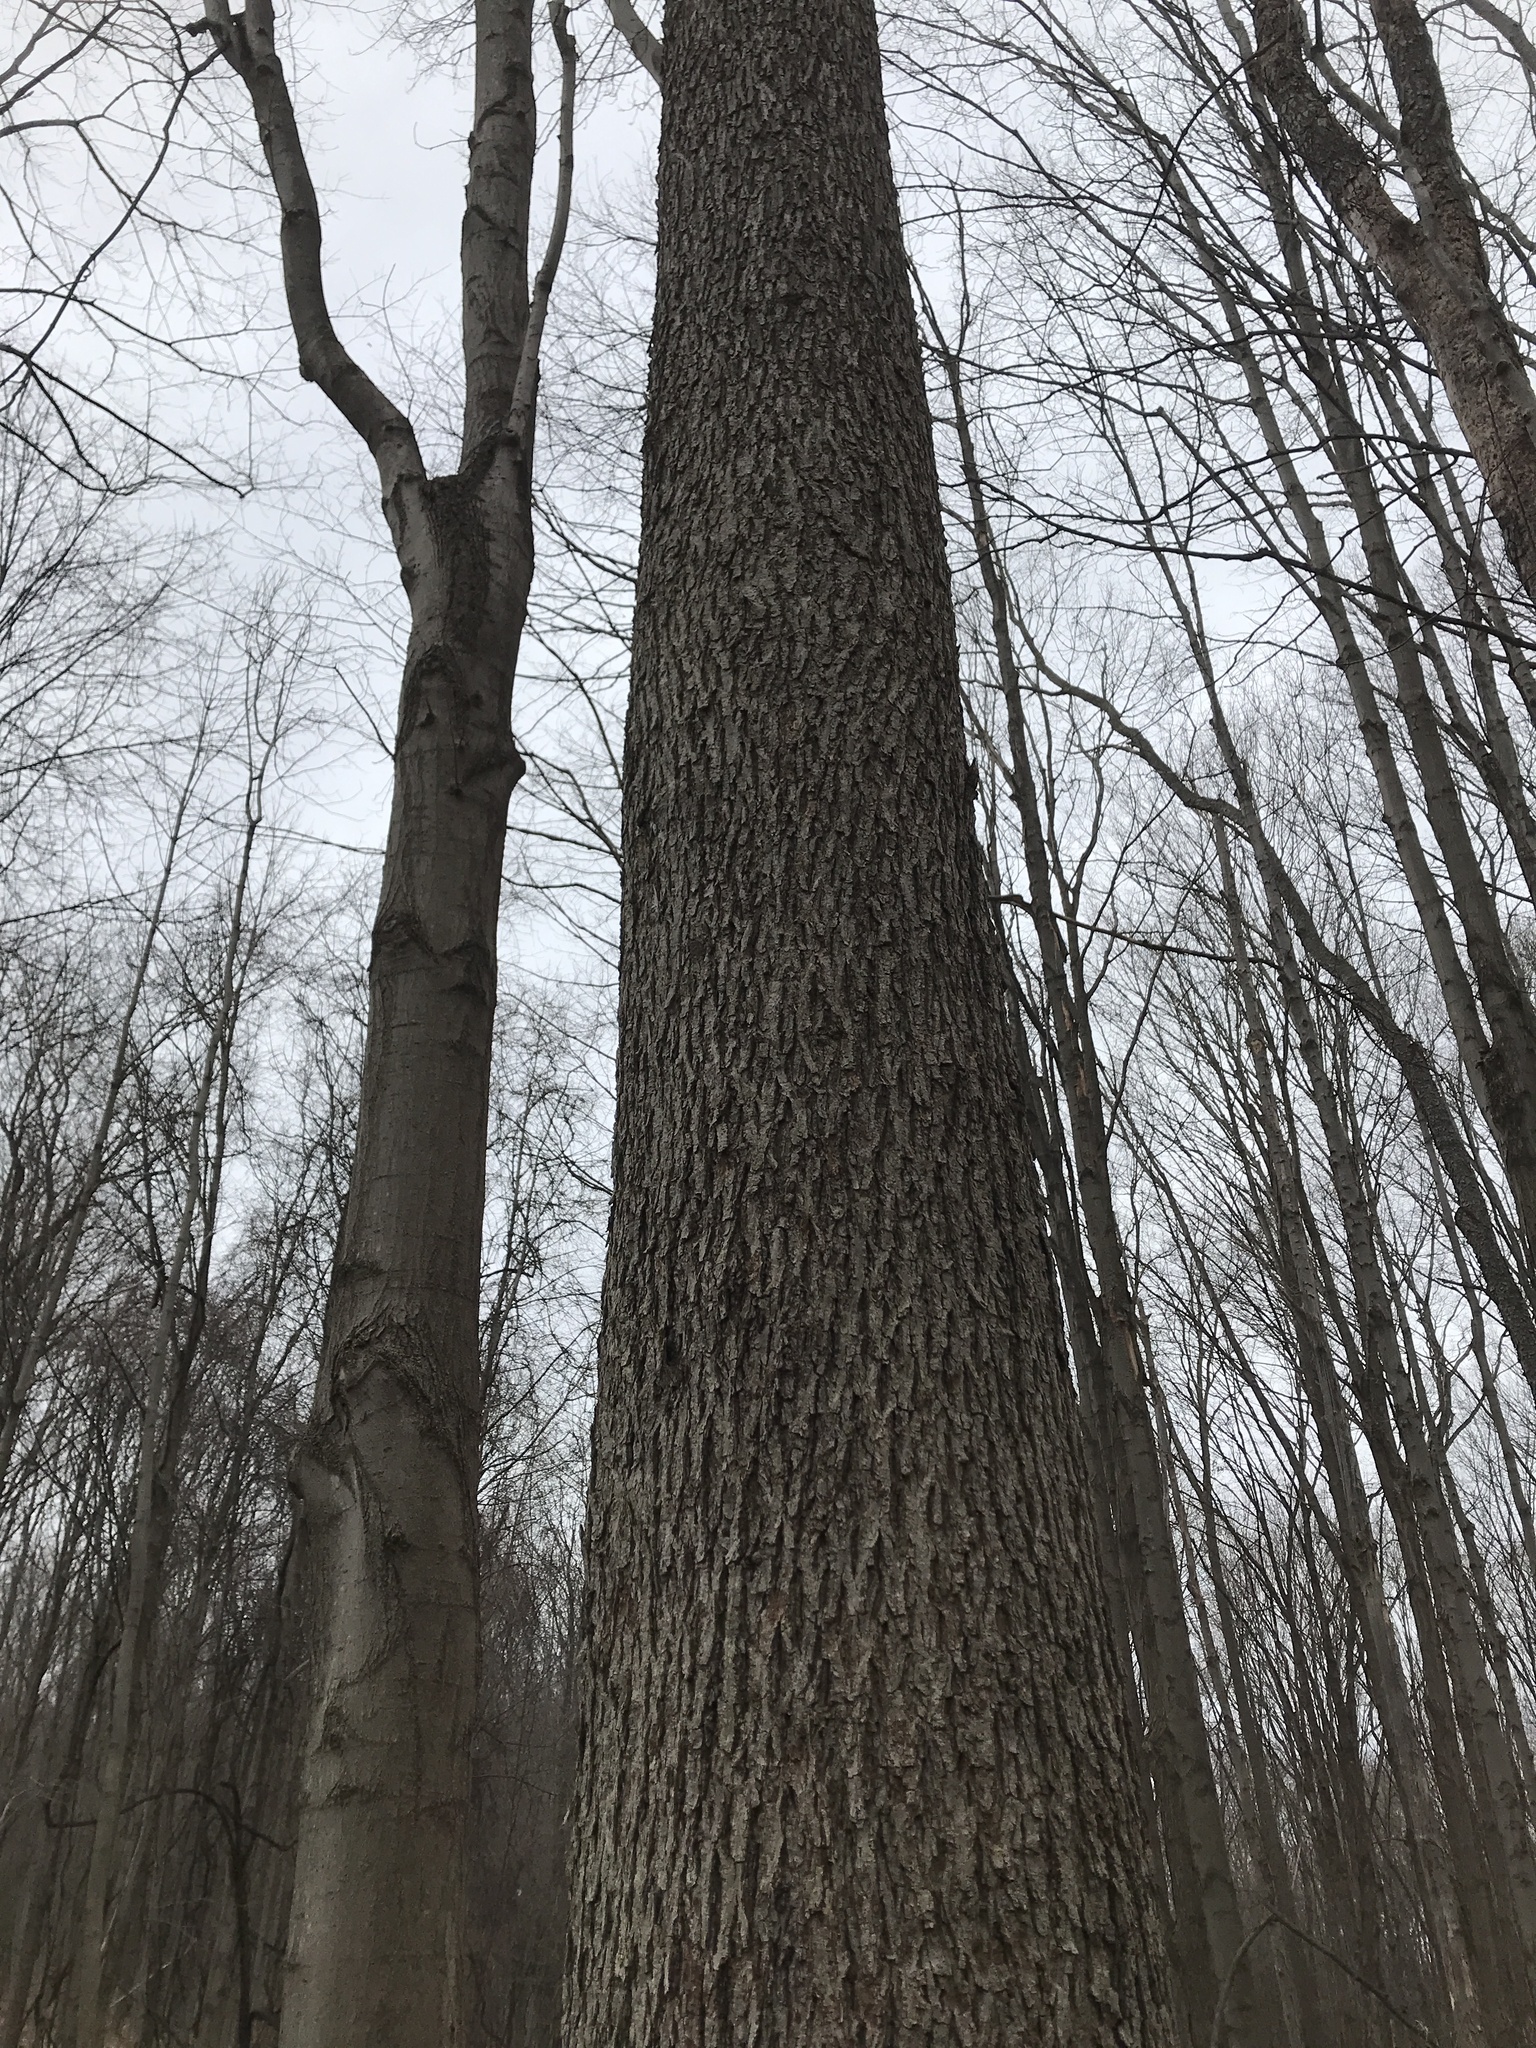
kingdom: Plantae
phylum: Tracheophyta
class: Magnoliopsida
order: Malpighiales
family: Salicaceae
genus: Populus
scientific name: Populus grandidentata
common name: Bigtooth aspen
